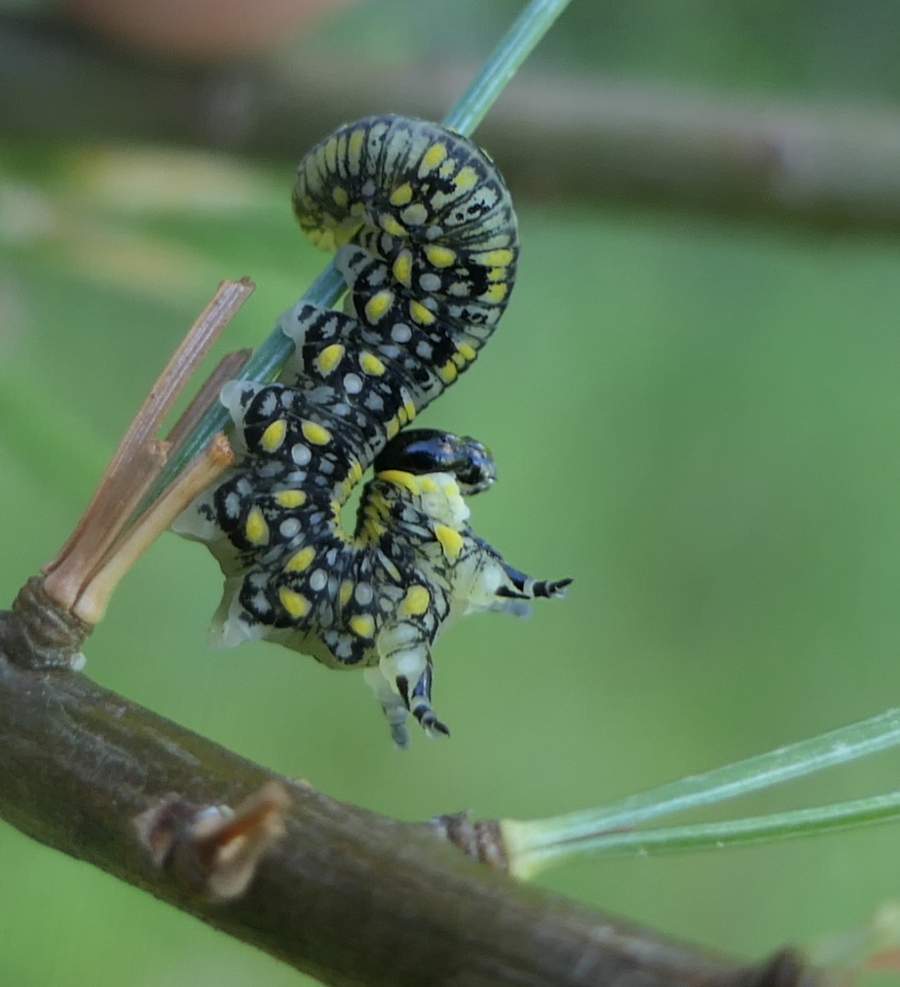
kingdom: Animalia
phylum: Arthropoda
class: Insecta
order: Hymenoptera
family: Diprionidae
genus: Diprion
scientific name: Diprion similis
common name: Pine sawfly
